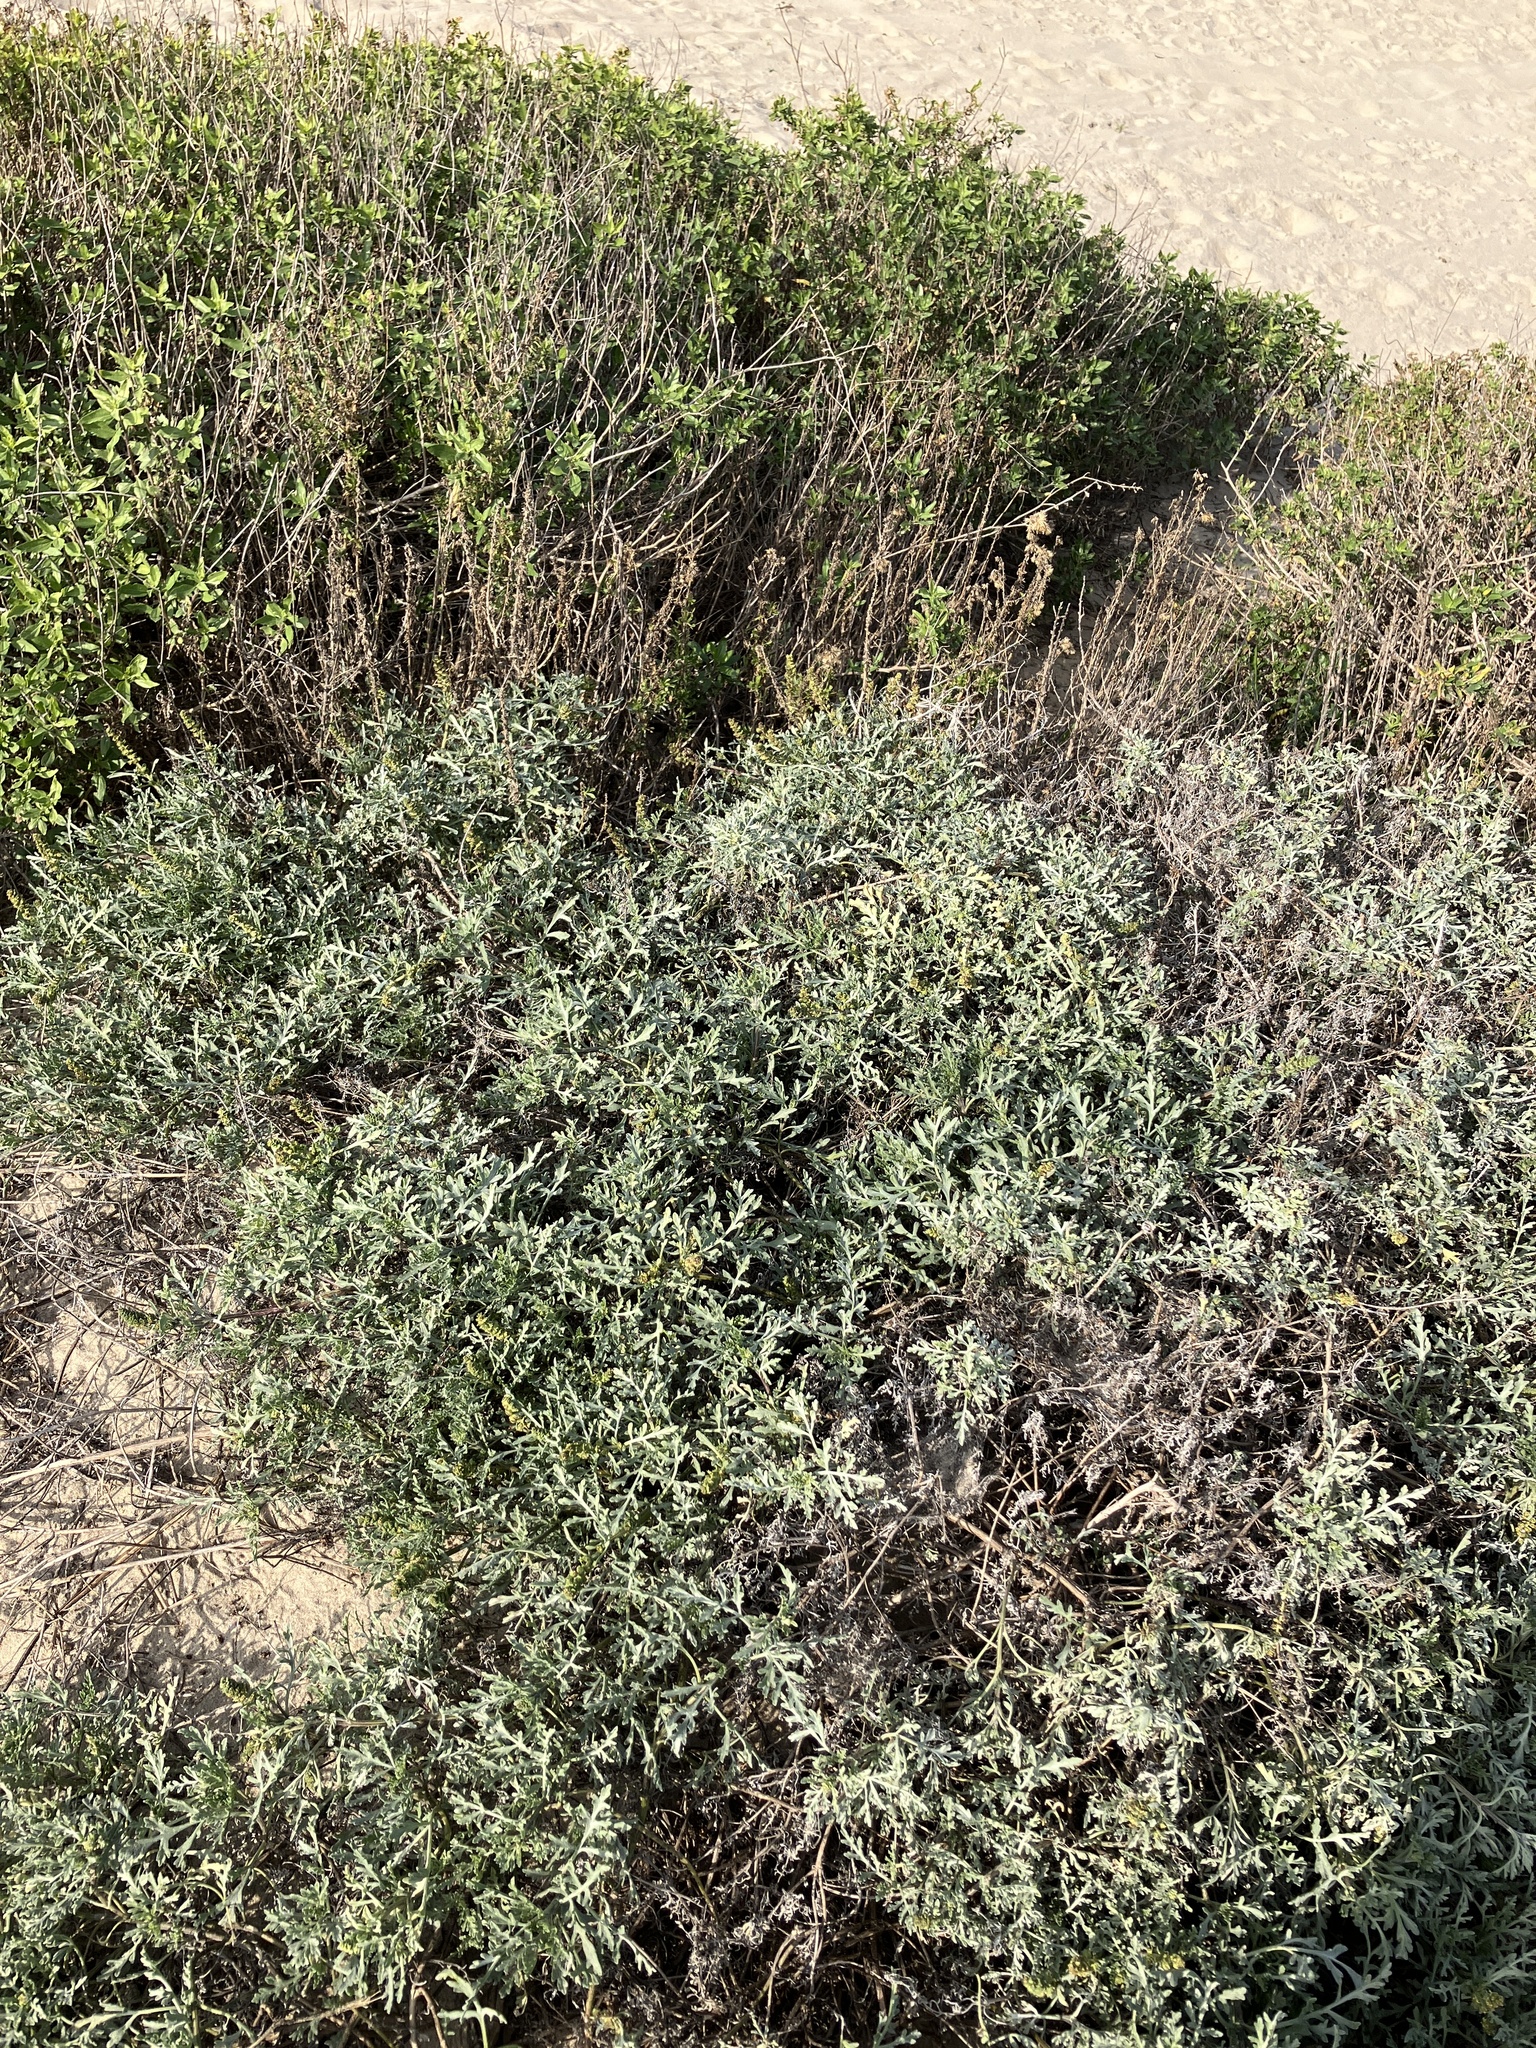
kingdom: Plantae
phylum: Tracheophyta
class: Magnoliopsida
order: Asterales
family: Asteraceae
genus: Ambrosia
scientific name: Ambrosia chamissonis
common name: Beachbur
